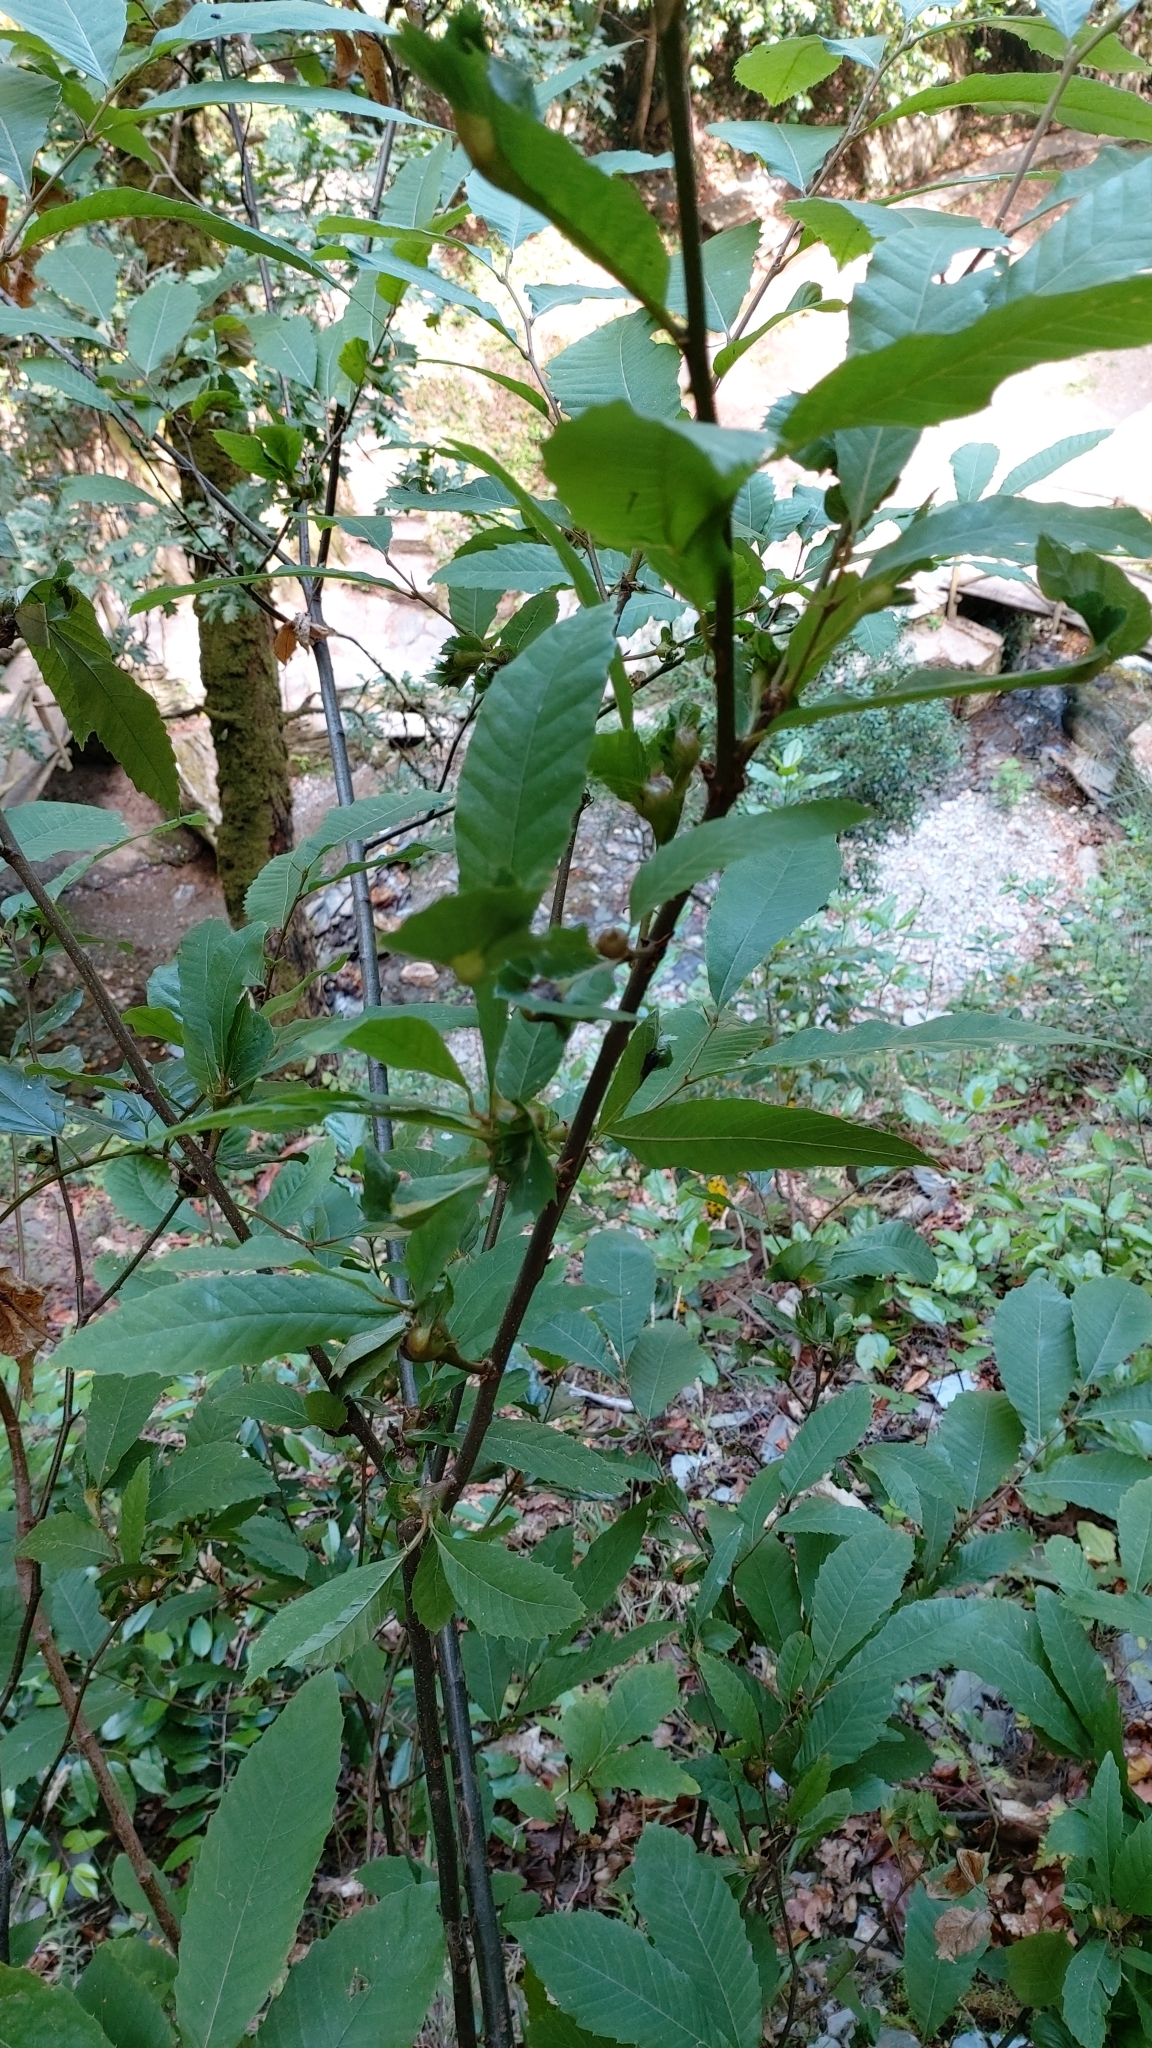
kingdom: Animalia
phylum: Arthropoda
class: Insecta
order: Hymenoptera
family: Cynipidae
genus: Dryocosmus
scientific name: Dryocosmus kuriphilus
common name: Asian chestnut gall wasp
